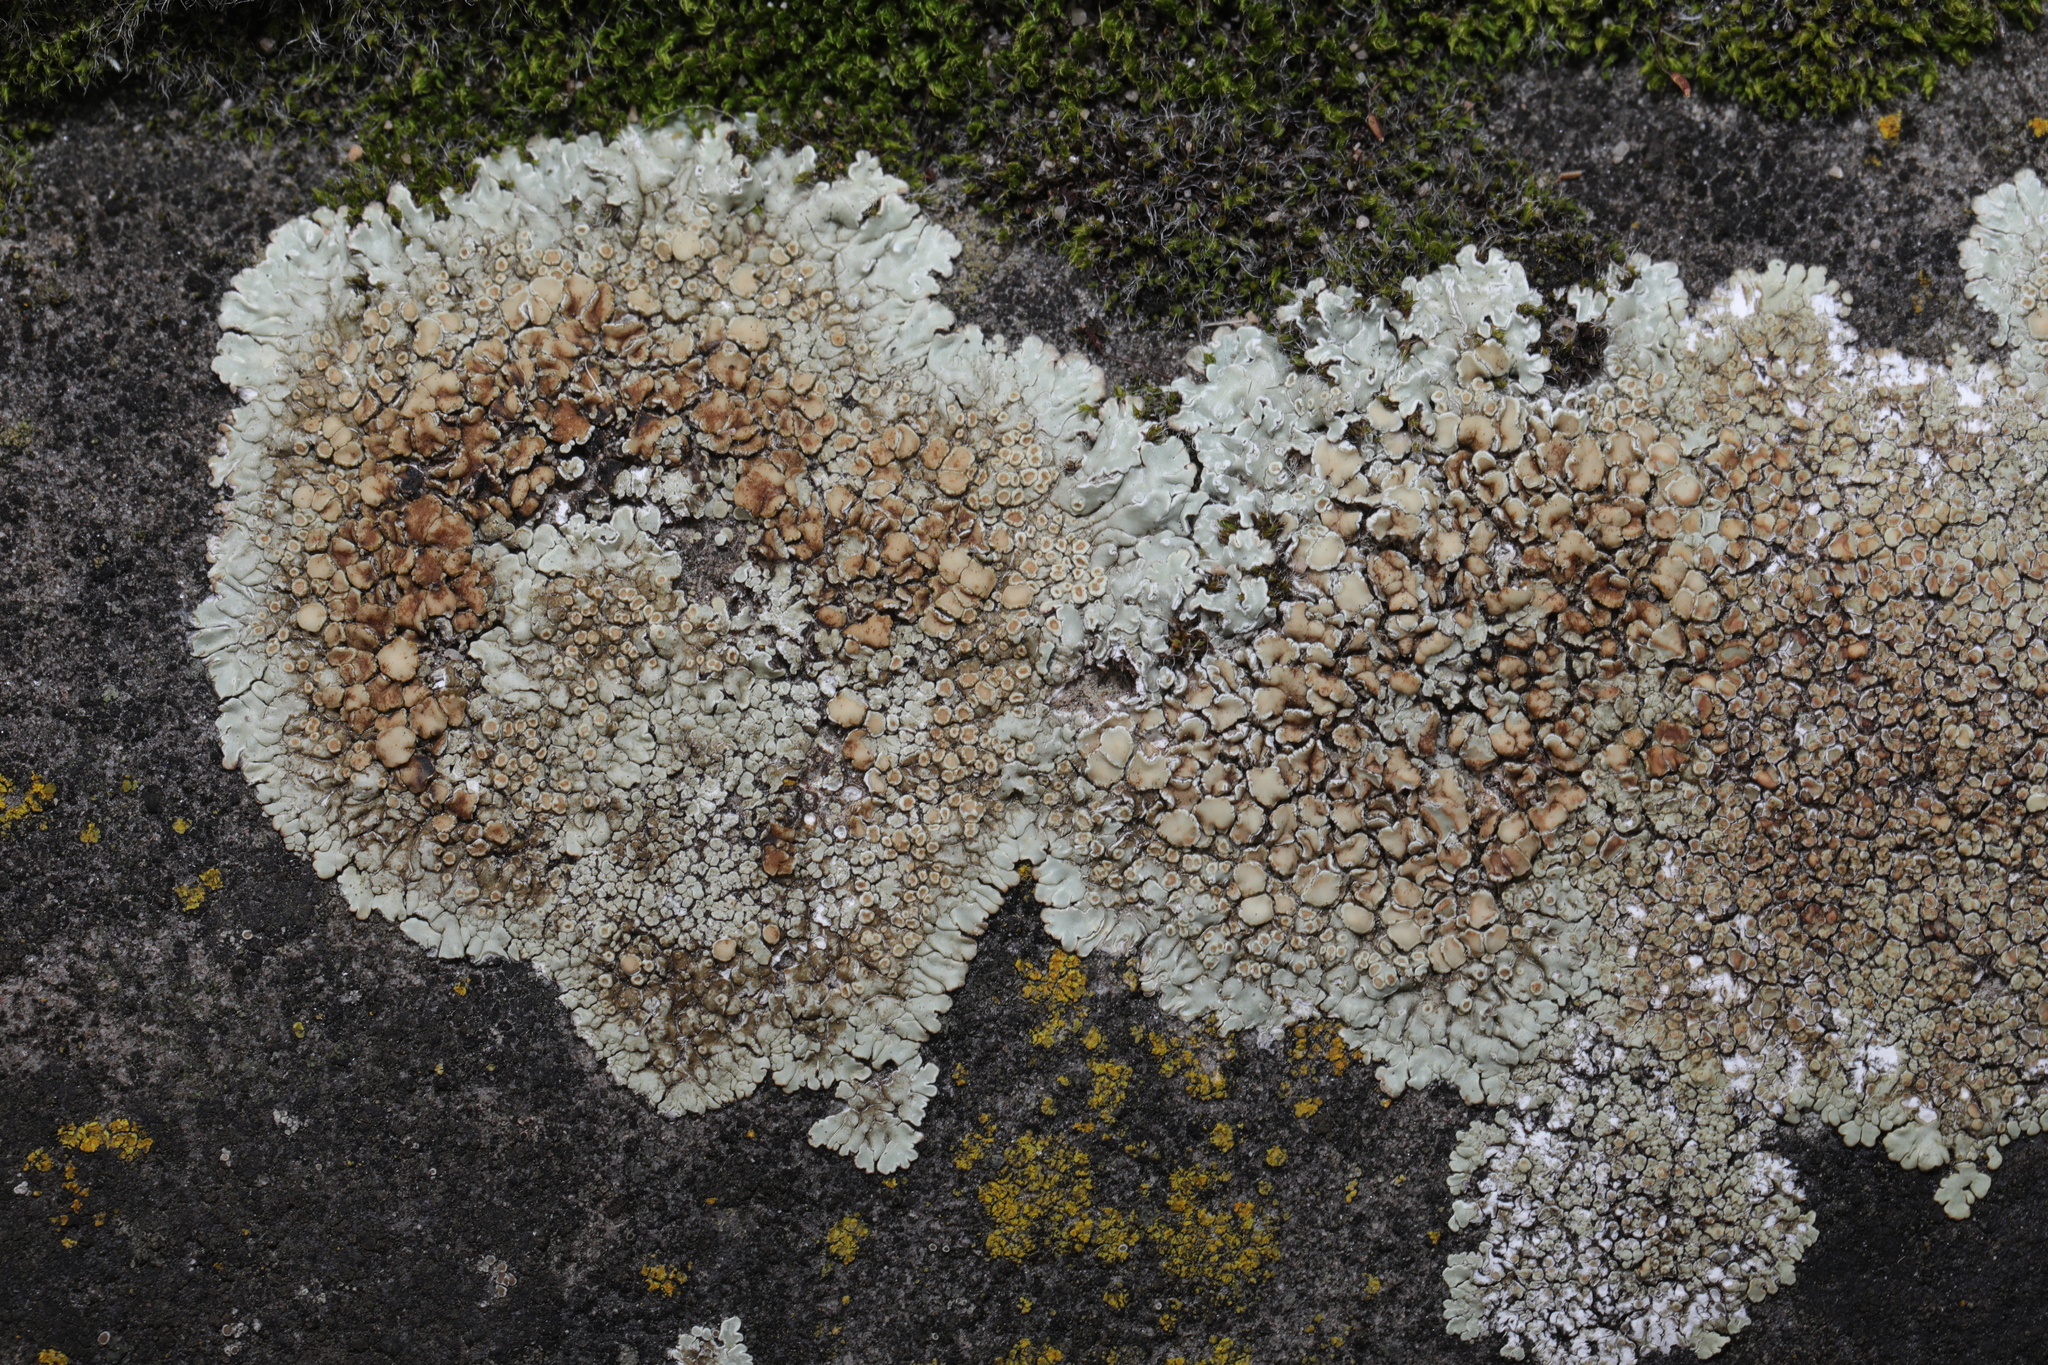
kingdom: Fungi
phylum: Ascomycota
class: Lecanoromycetes
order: Lecanorales
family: Lecanoraceae
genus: Protoparmeliopsis
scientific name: Protoparmeliopsis muralis
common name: Stonewall rim lichen
